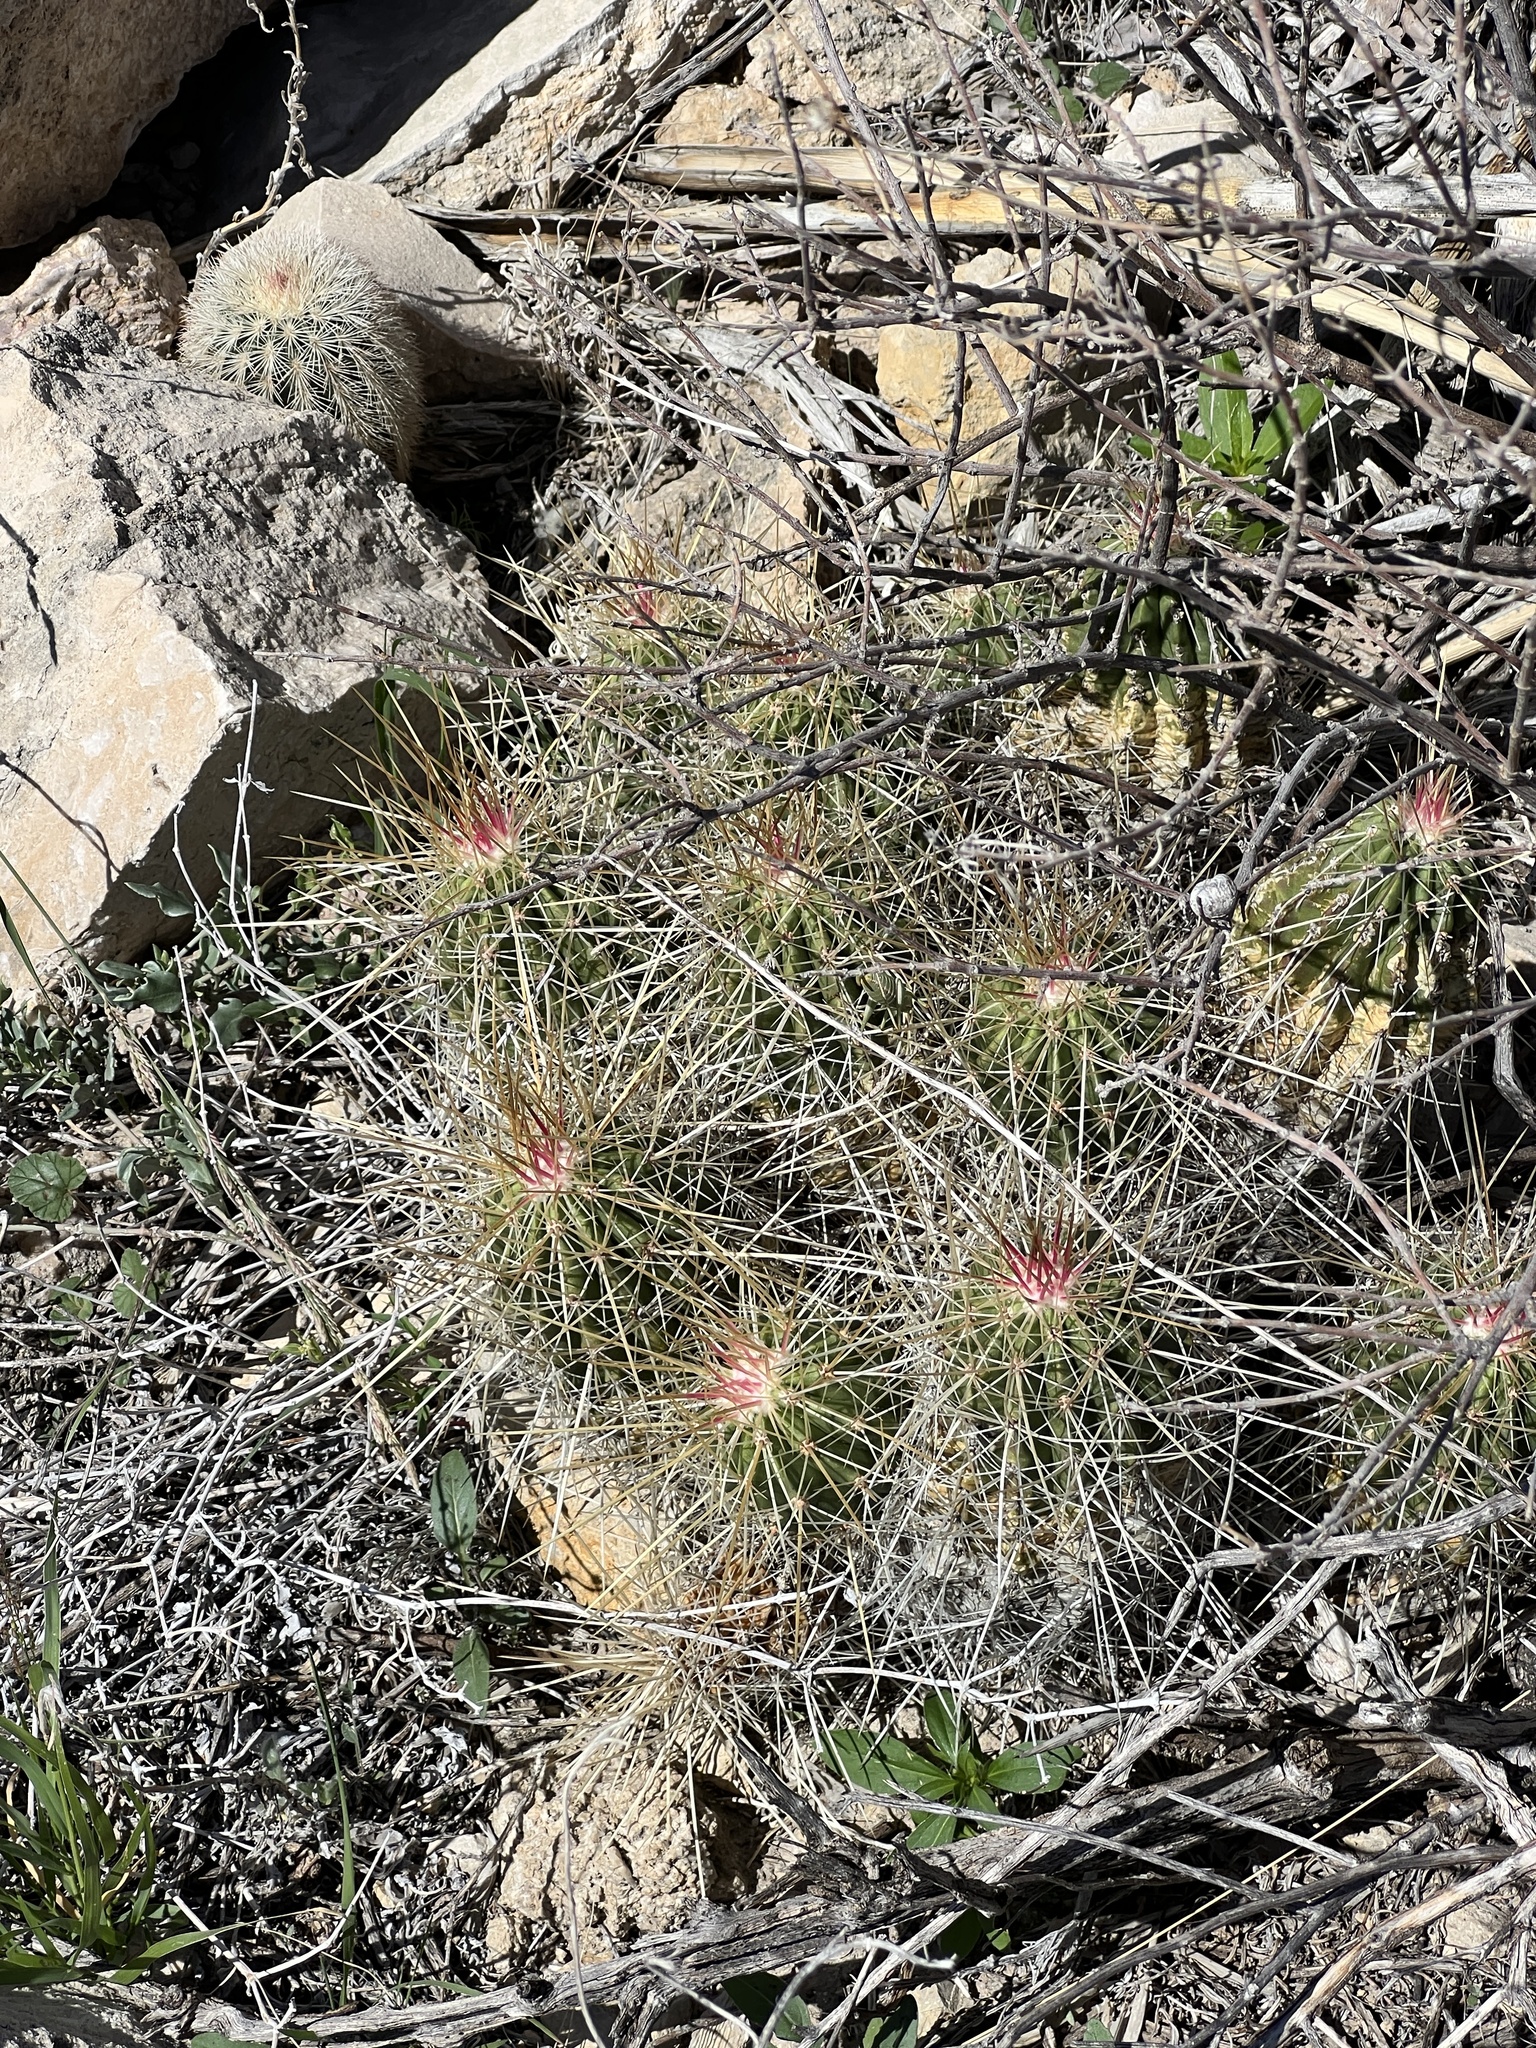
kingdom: Plantae
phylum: Tracheophyta
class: Magnoliopsida
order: Caryophyllales
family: Cactaceae
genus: Echinocereus
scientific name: Echinocereus stramineus
